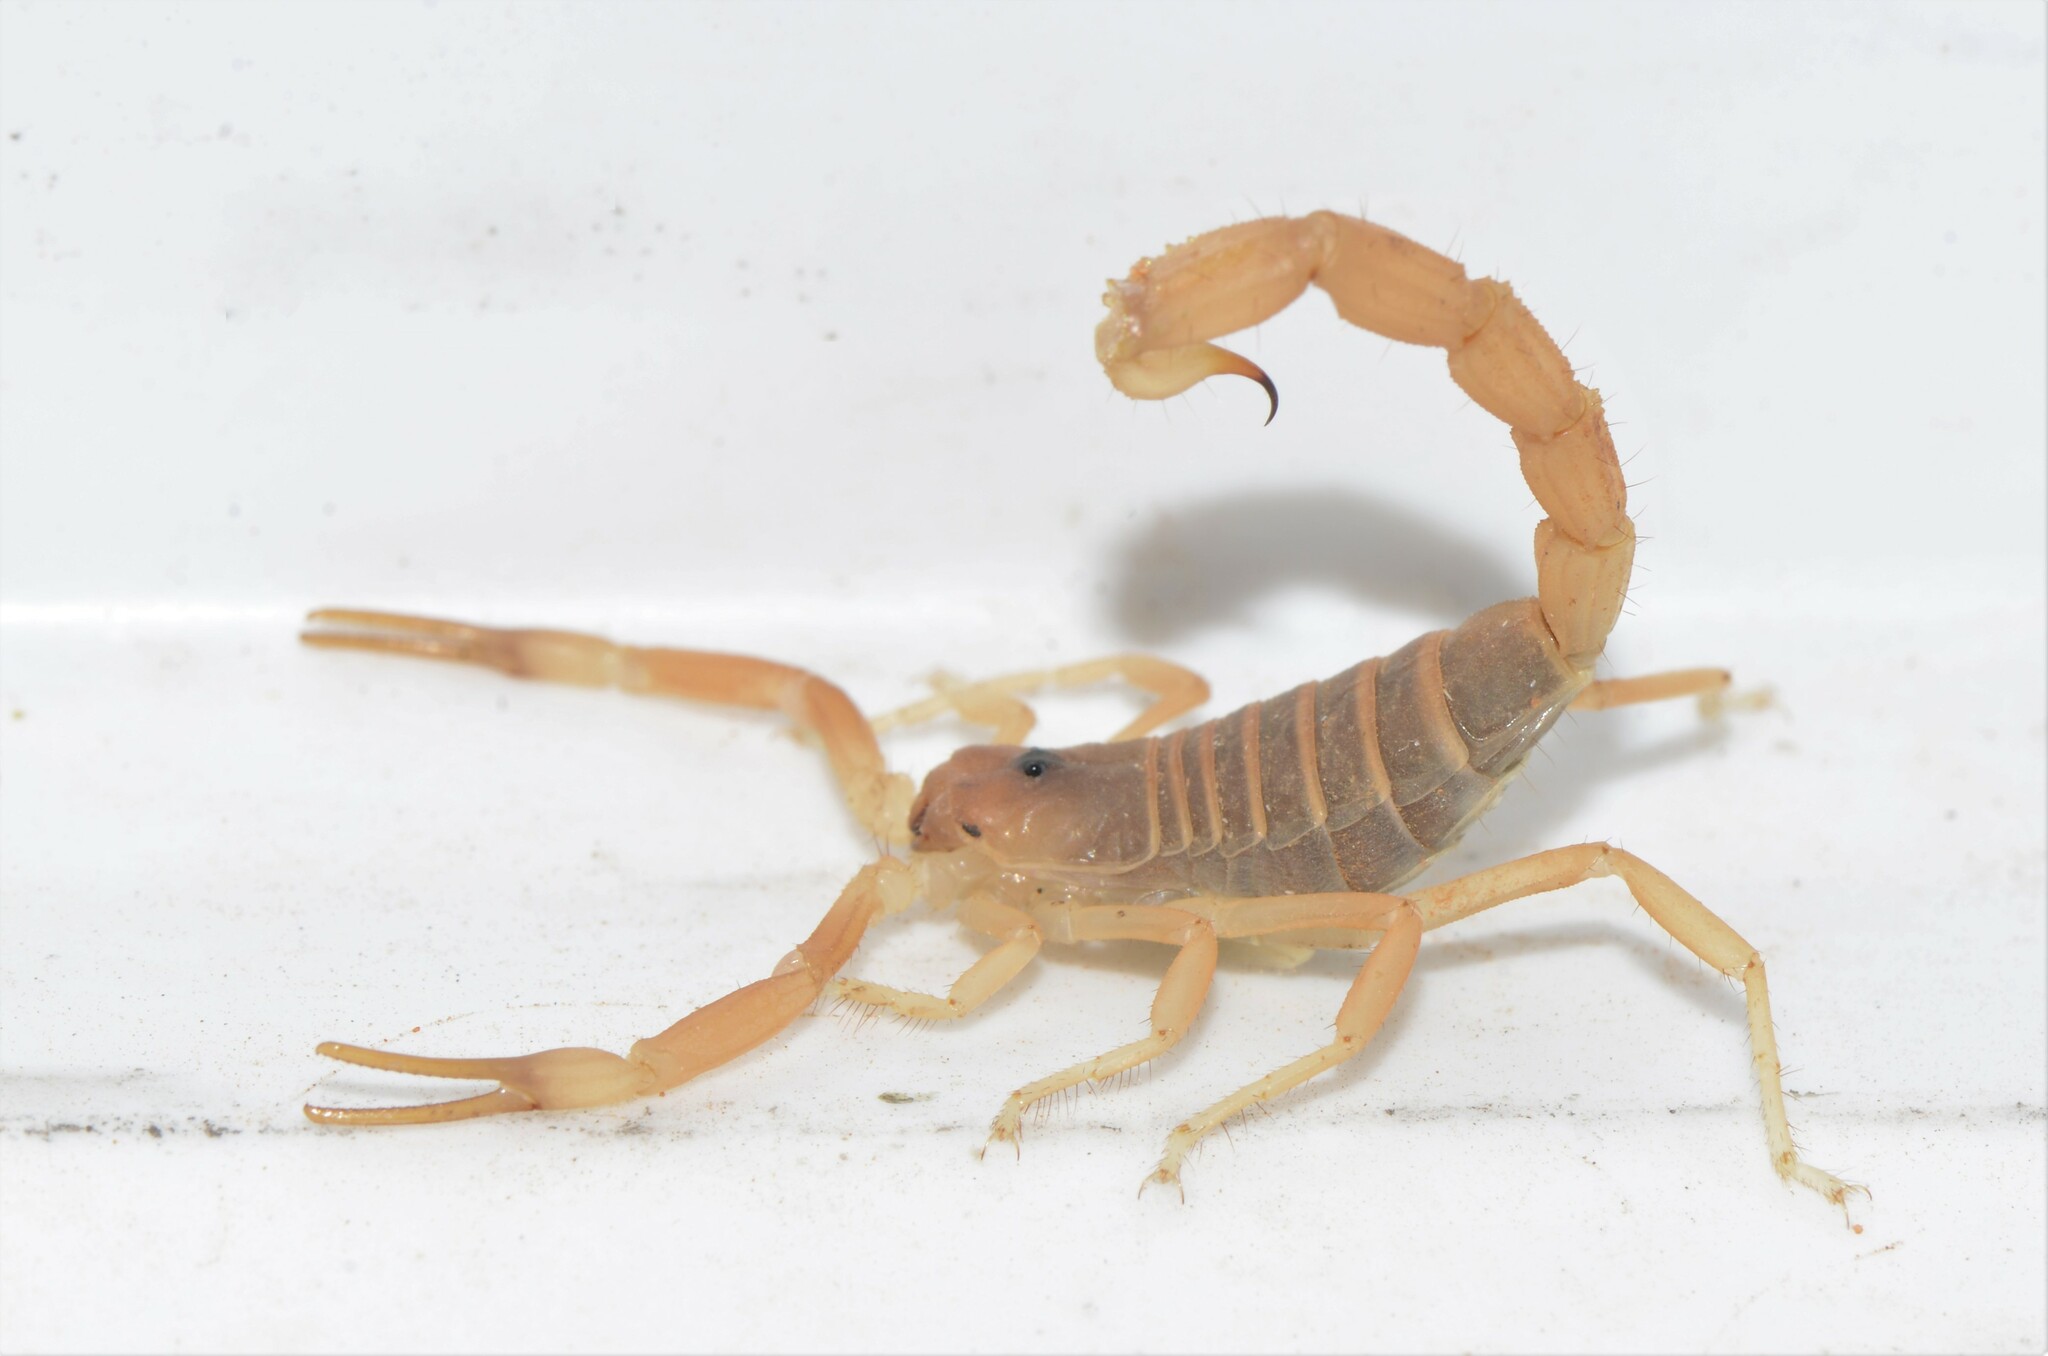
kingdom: Animalia
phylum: Arthropoda
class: Arachnida
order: Scorpiones
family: Buthidae
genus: Parabuthus
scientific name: Parabuthus granulatus
